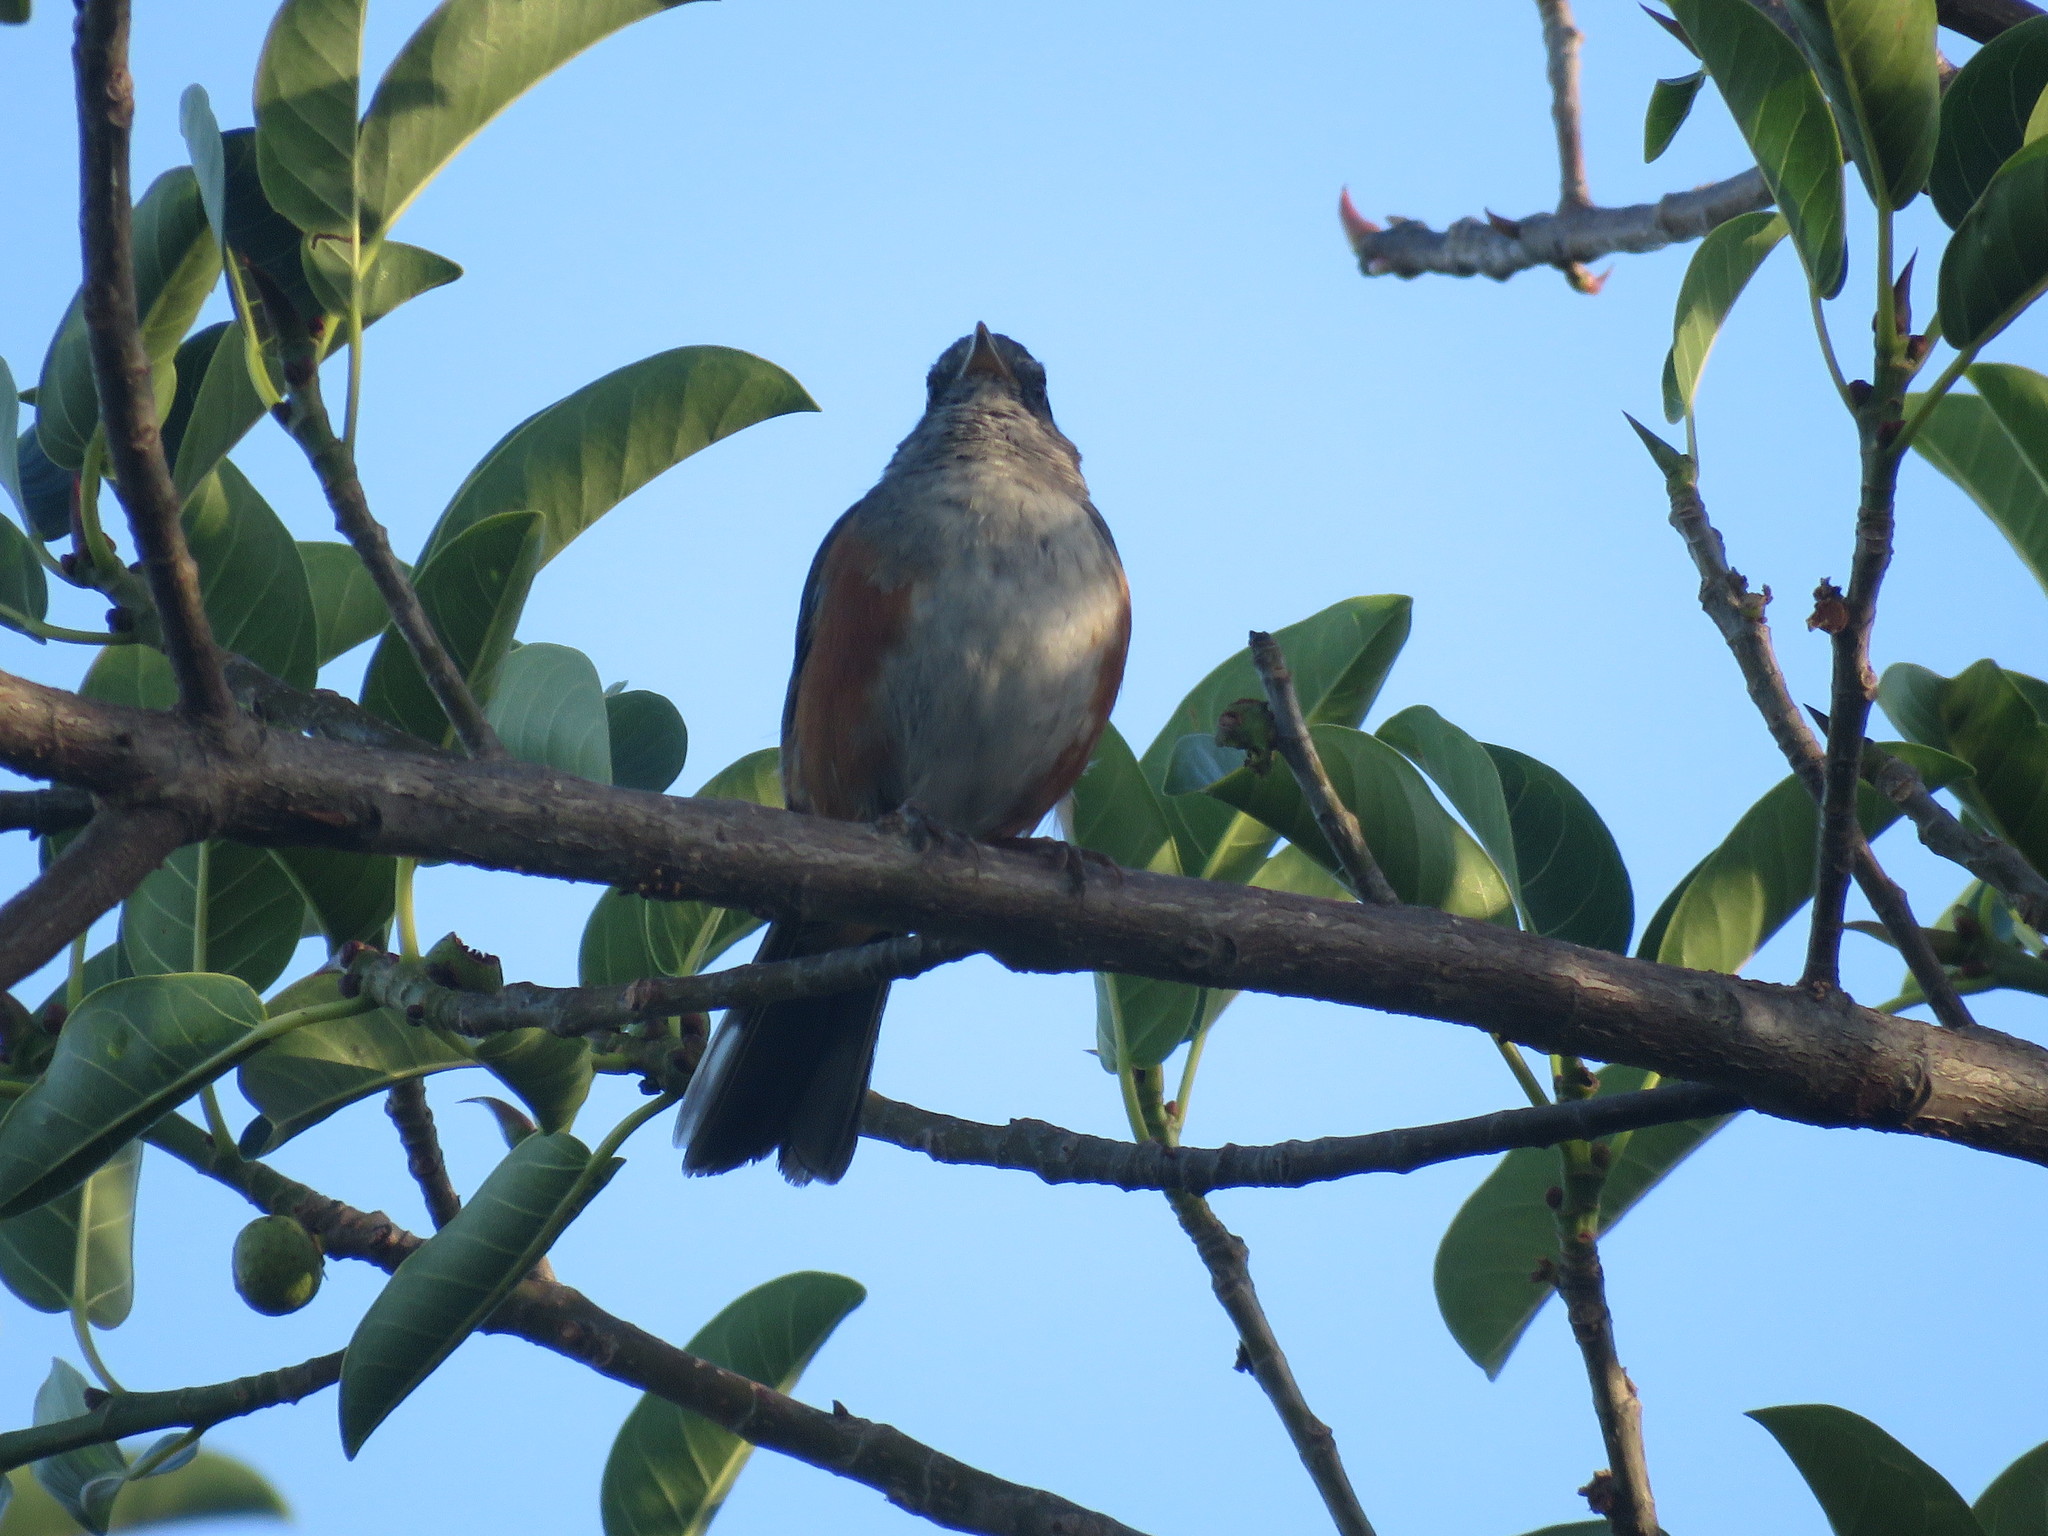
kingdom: Animalia
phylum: Chordata
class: Aves
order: Passeriformes
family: Thraupidae
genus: Microspingus
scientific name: Microspingus cabanisi
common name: Gray-throated warbling-finch
